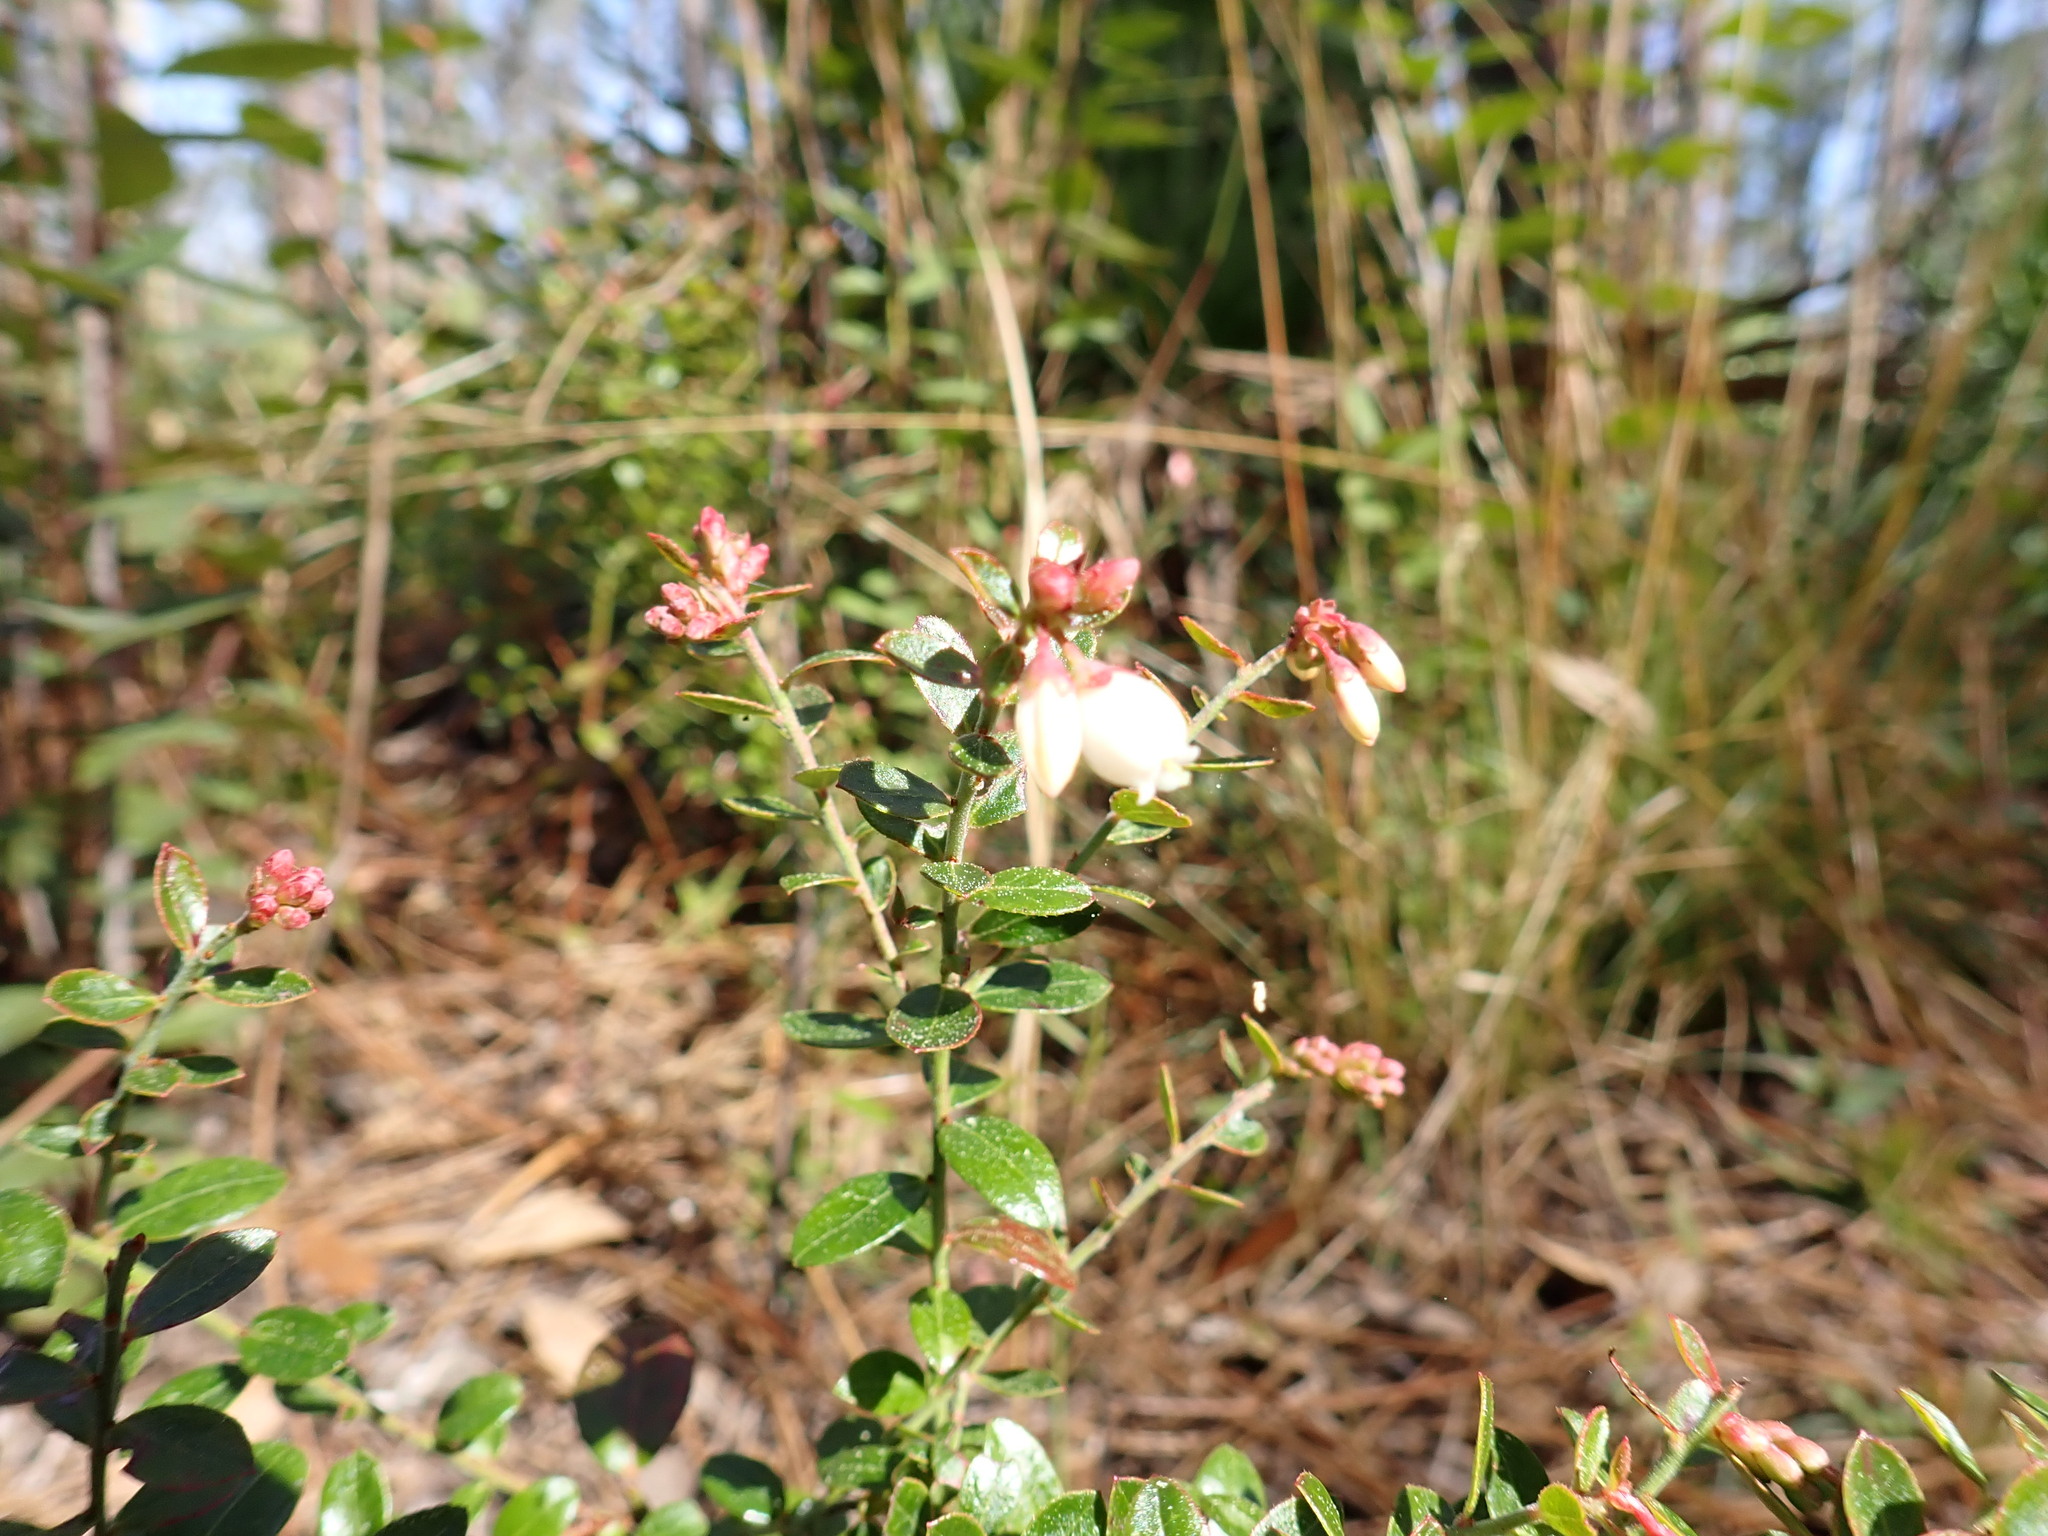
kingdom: Plantae
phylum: Tracheophyta
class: Magnoliopsida
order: Ericales
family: Ericaceae
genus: Vaccinium
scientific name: Vaccinium myrsinites
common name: Evergreen blueberry
